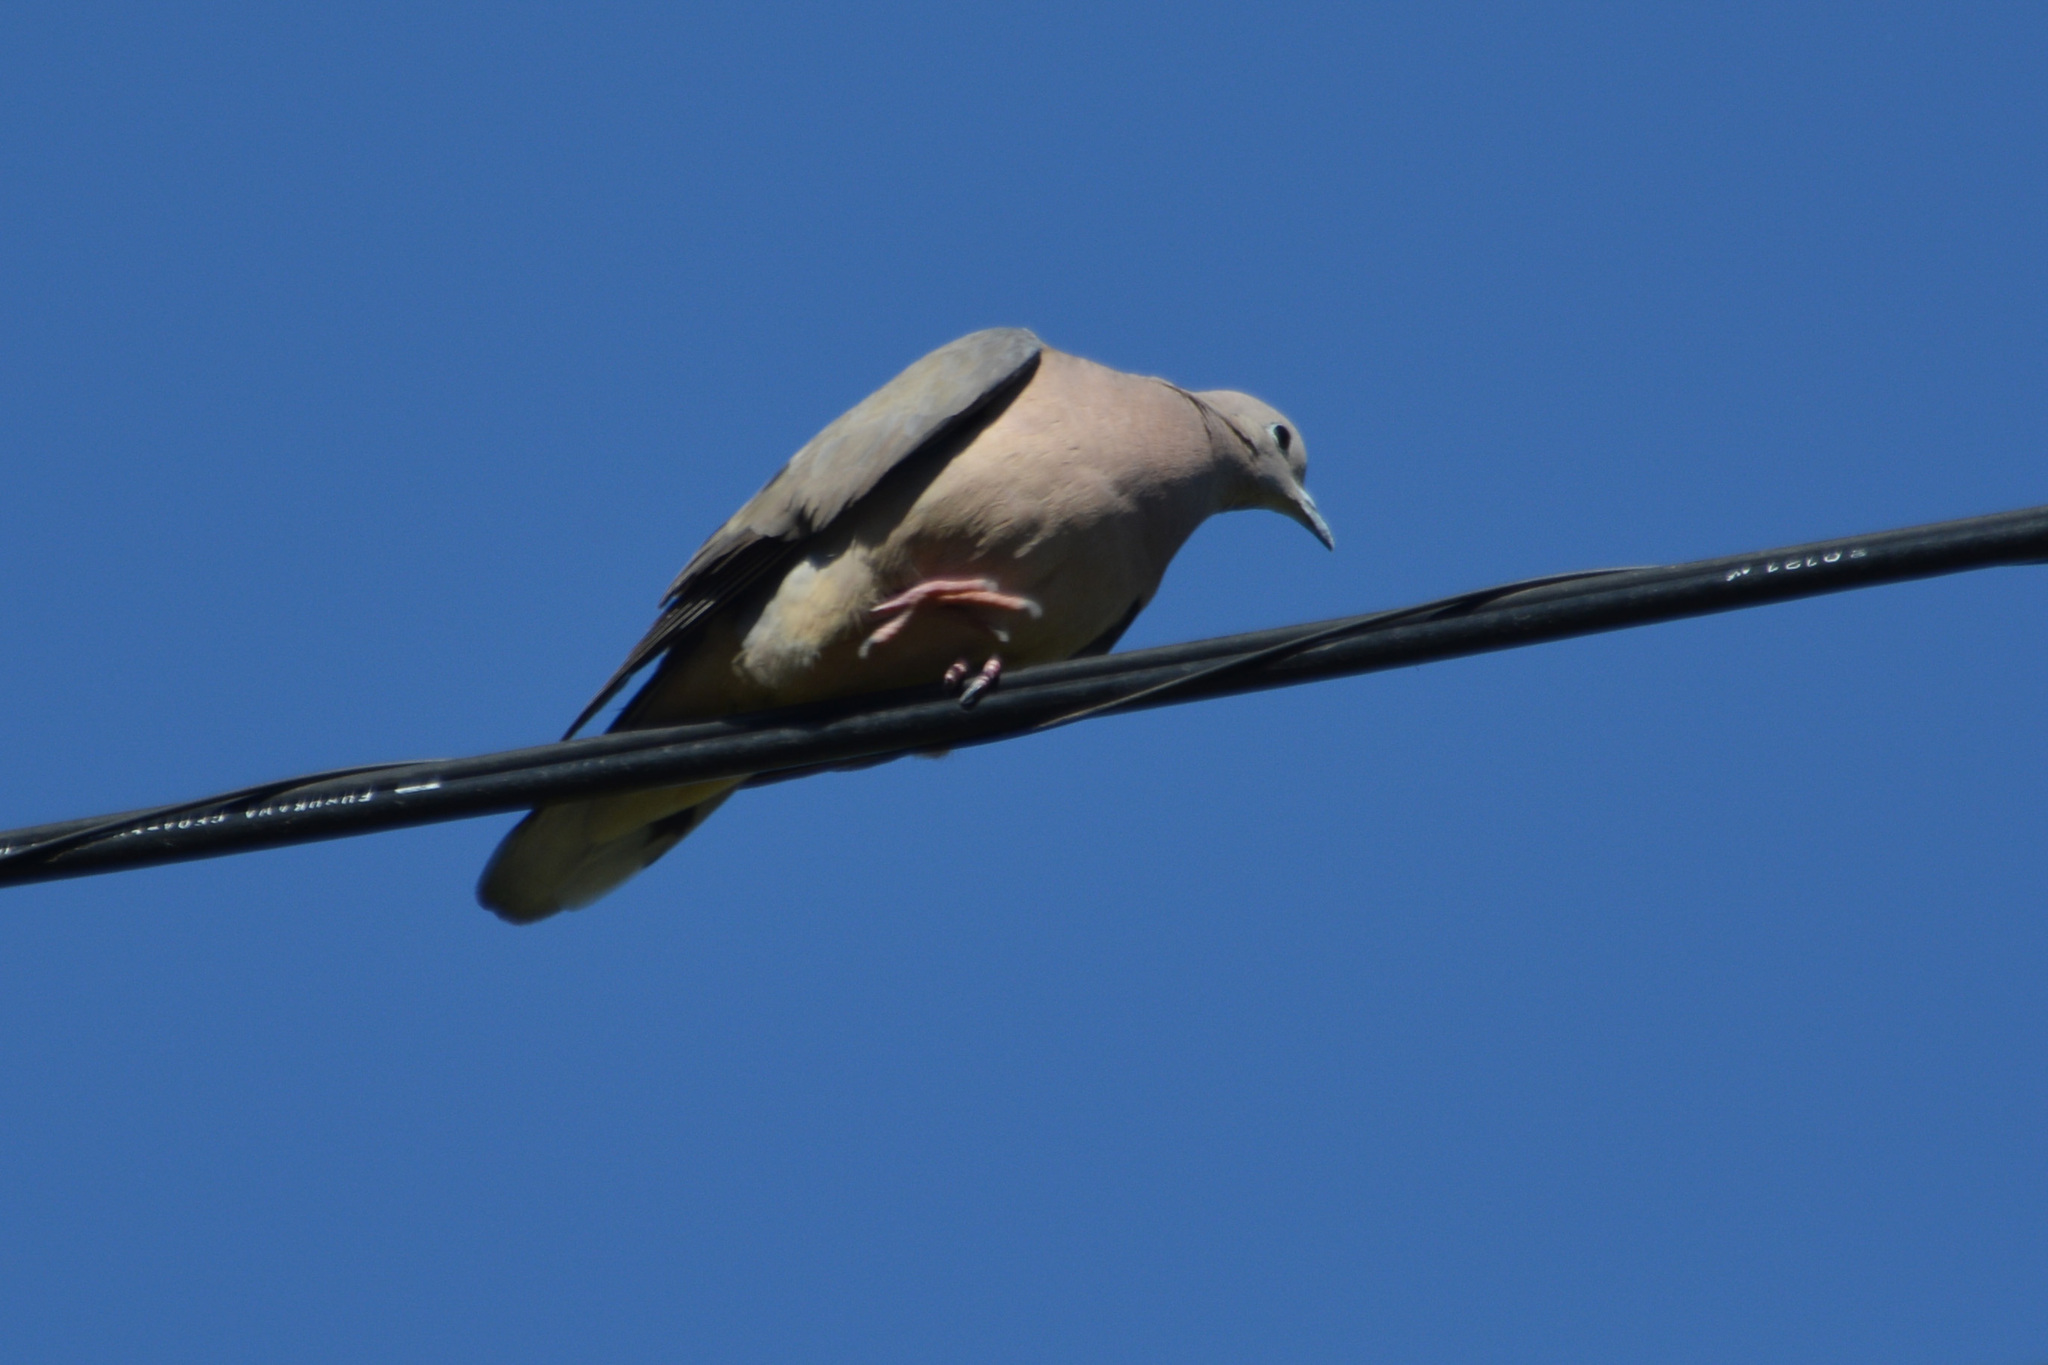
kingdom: Animalia
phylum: Chordata
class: Aves
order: Columbiformes
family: Columbidae
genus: Zenaida
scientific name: Zenaida auriculata
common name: Eared dove
